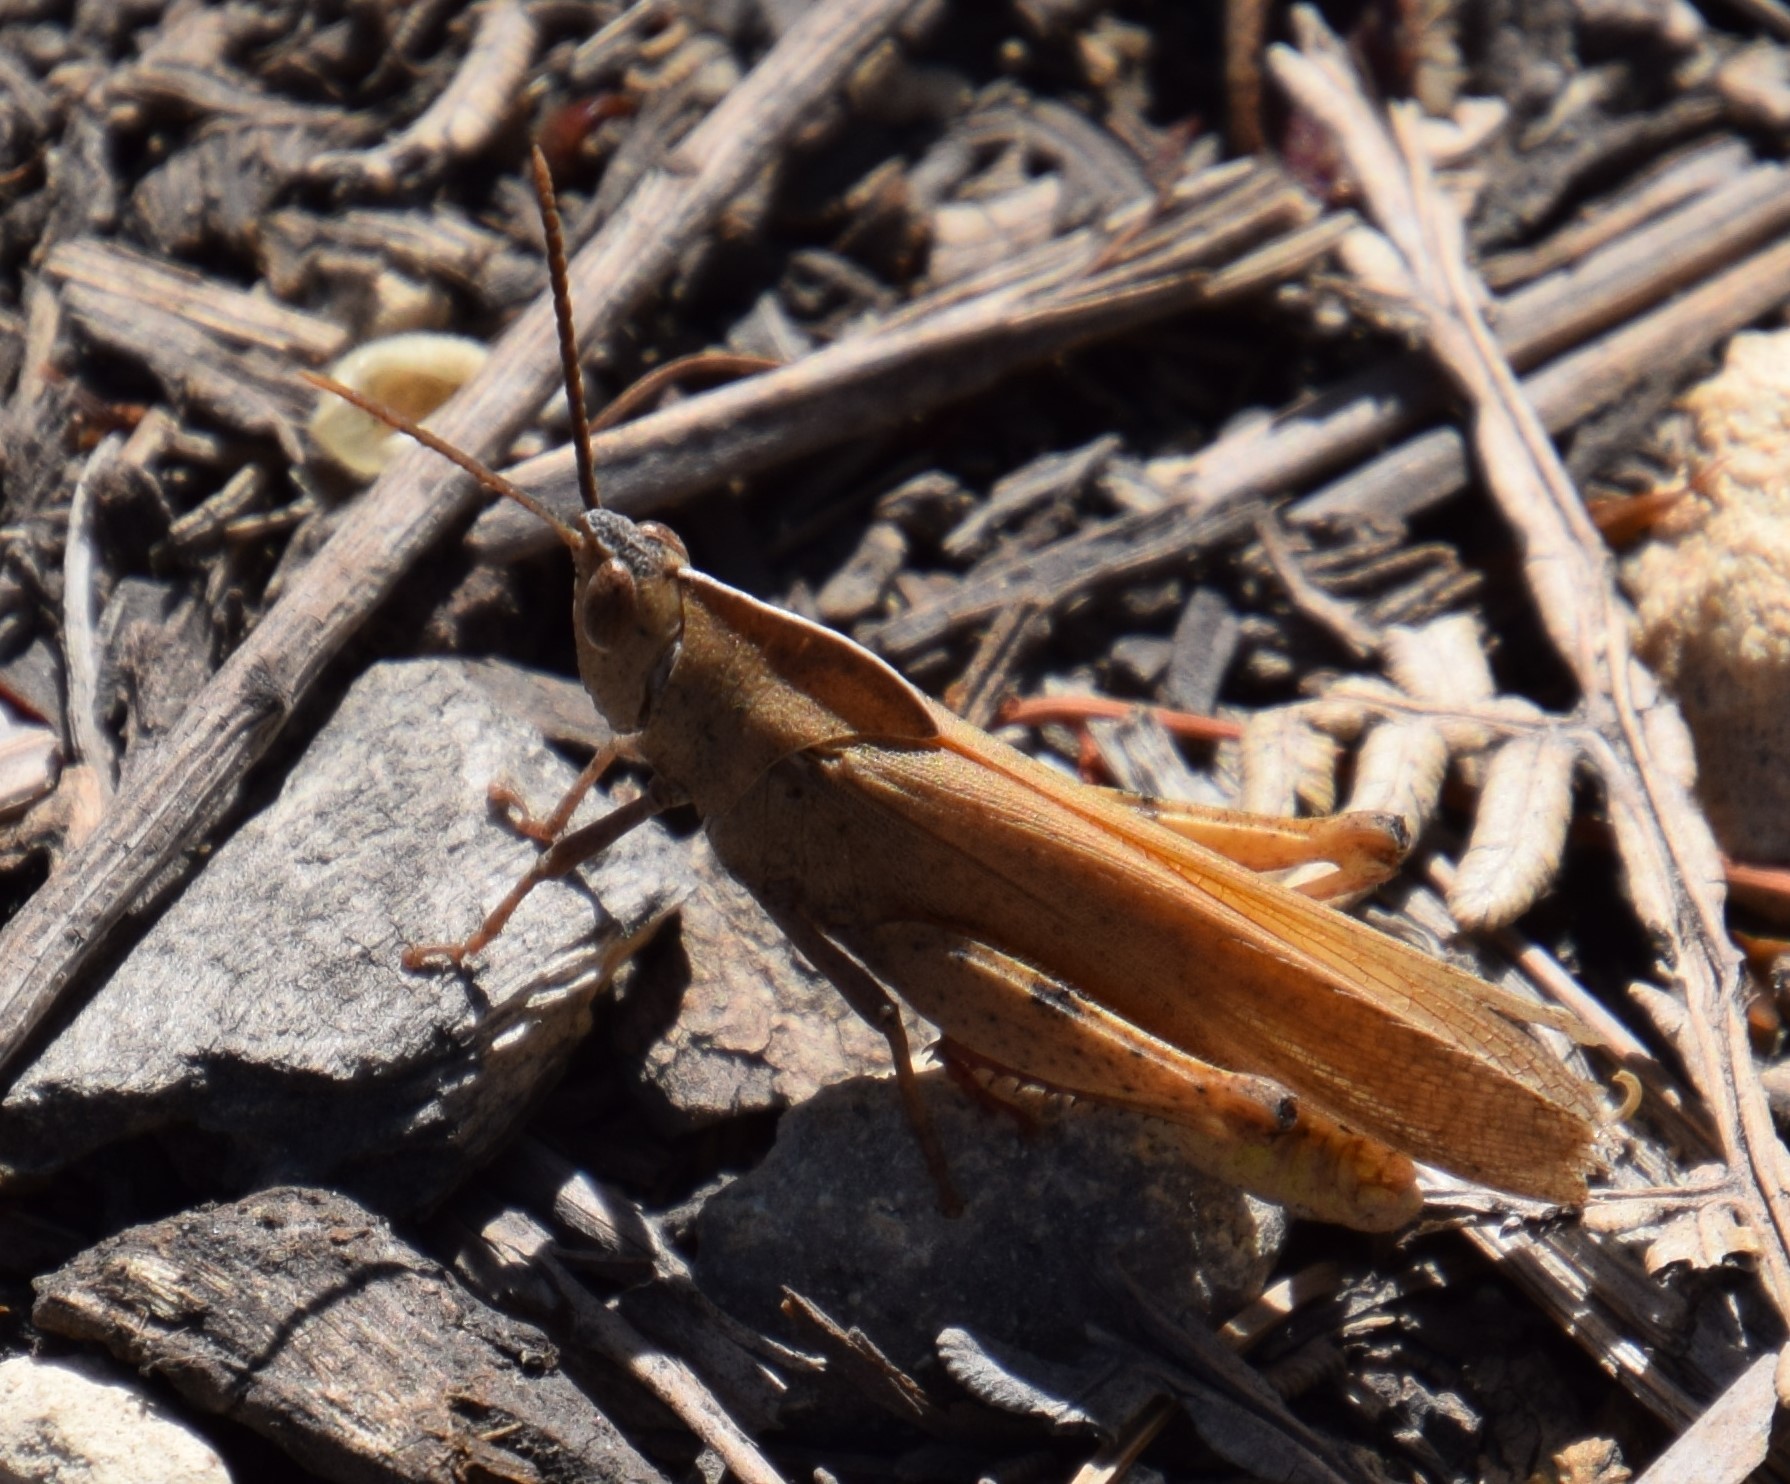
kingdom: Animalia
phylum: Arthropoda
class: Insecta
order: Orthoptera
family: Acrididae
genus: Goniaea
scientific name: Goniaea australasiae
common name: Gumleaf grasshopper
